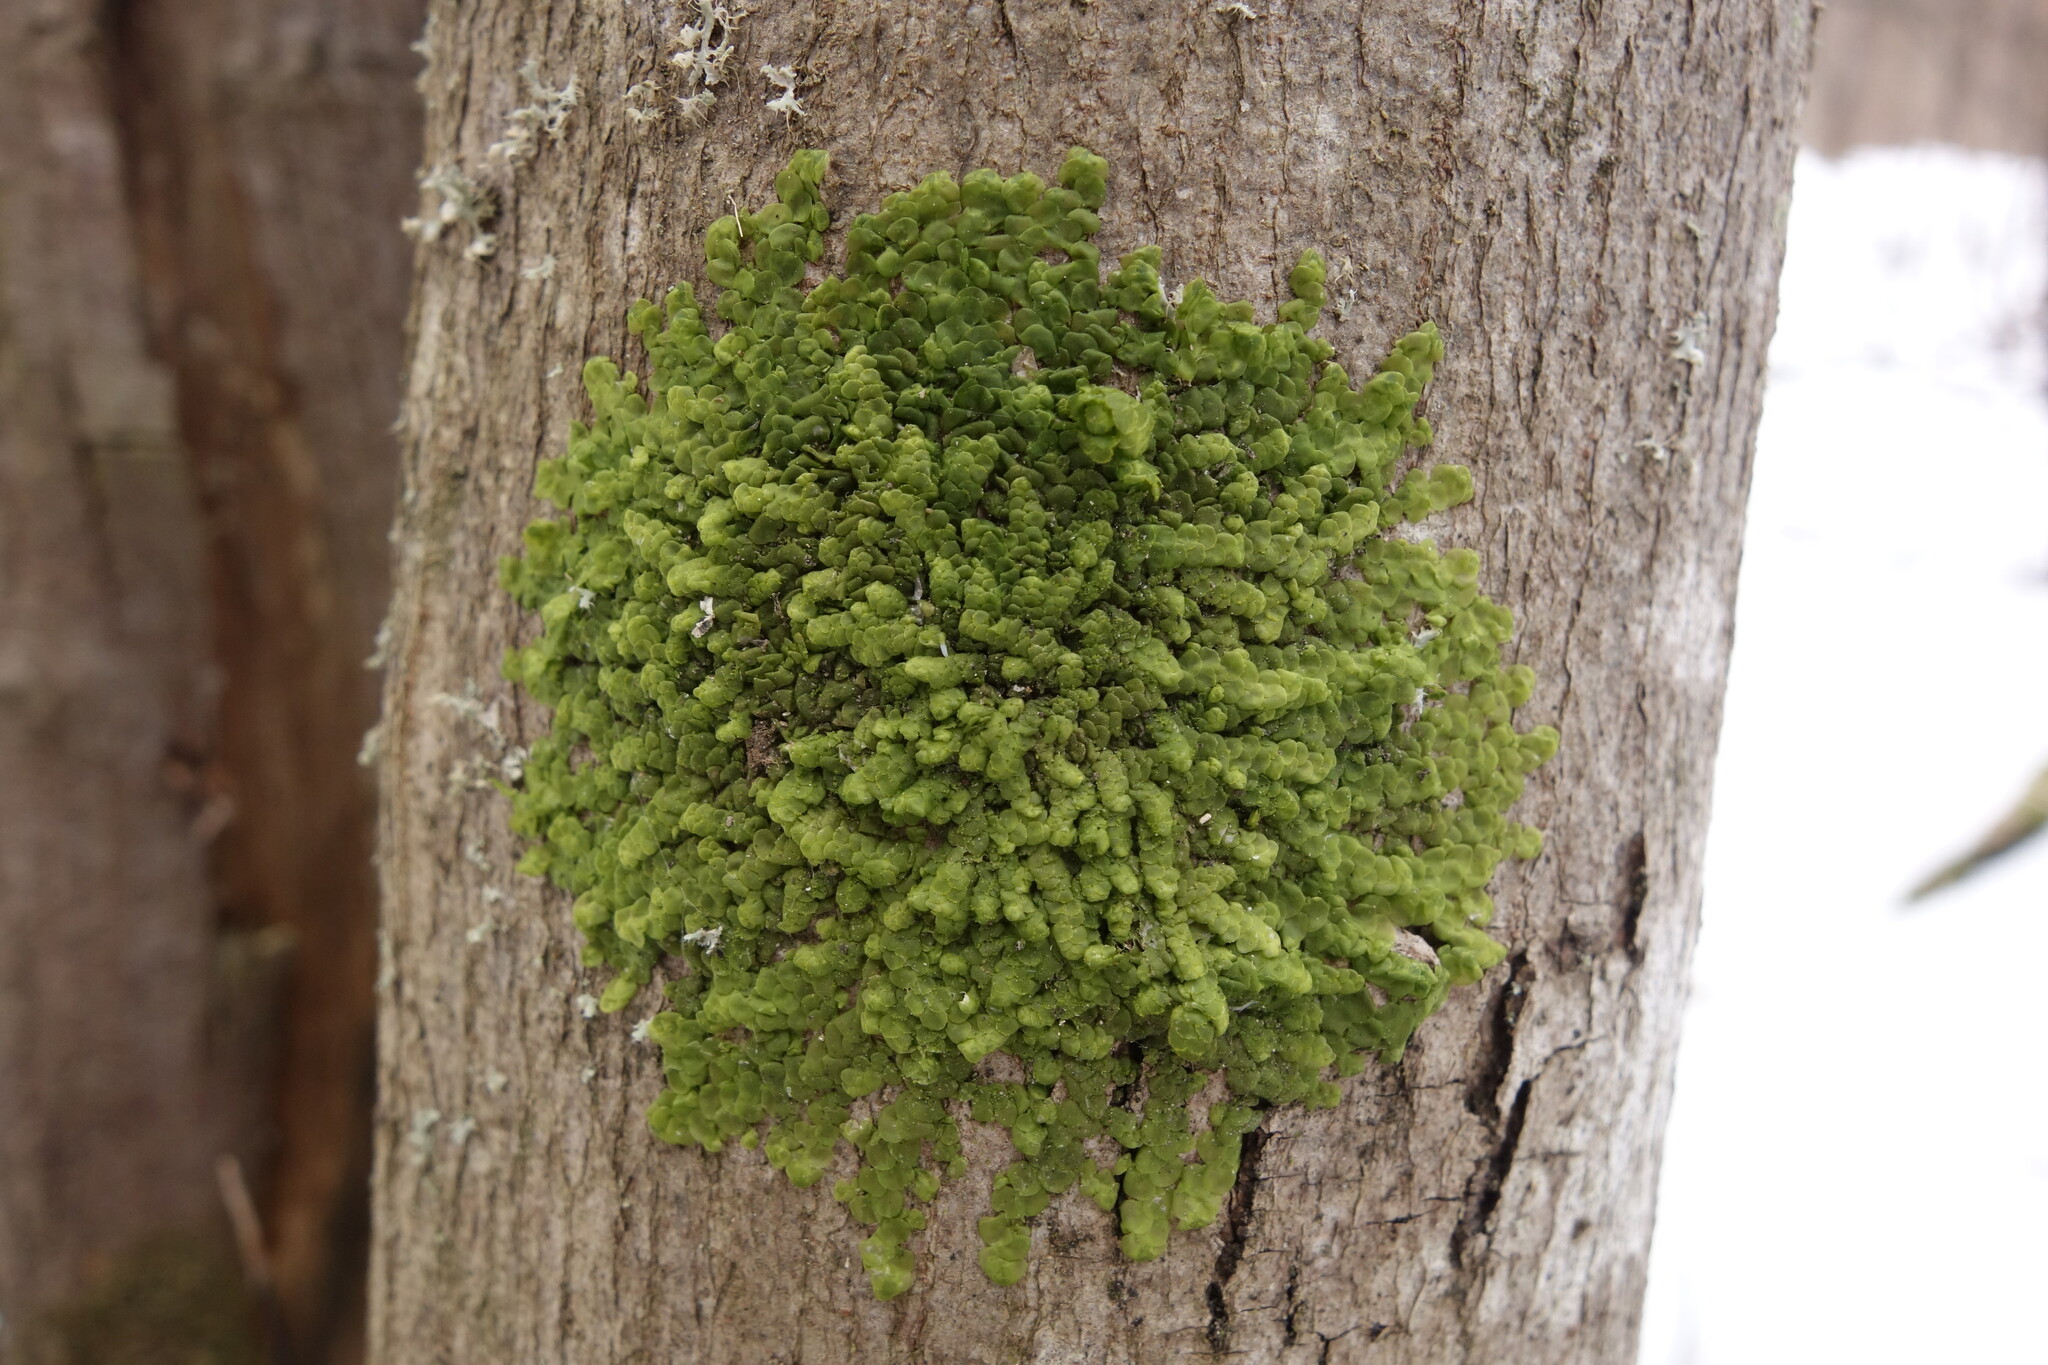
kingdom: Plantae
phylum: Marchantiophyta
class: Jungermanniopsida
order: Porellales
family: Radulaceae
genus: Radula
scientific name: Radula complanata
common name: Flat-leaved scalewort
